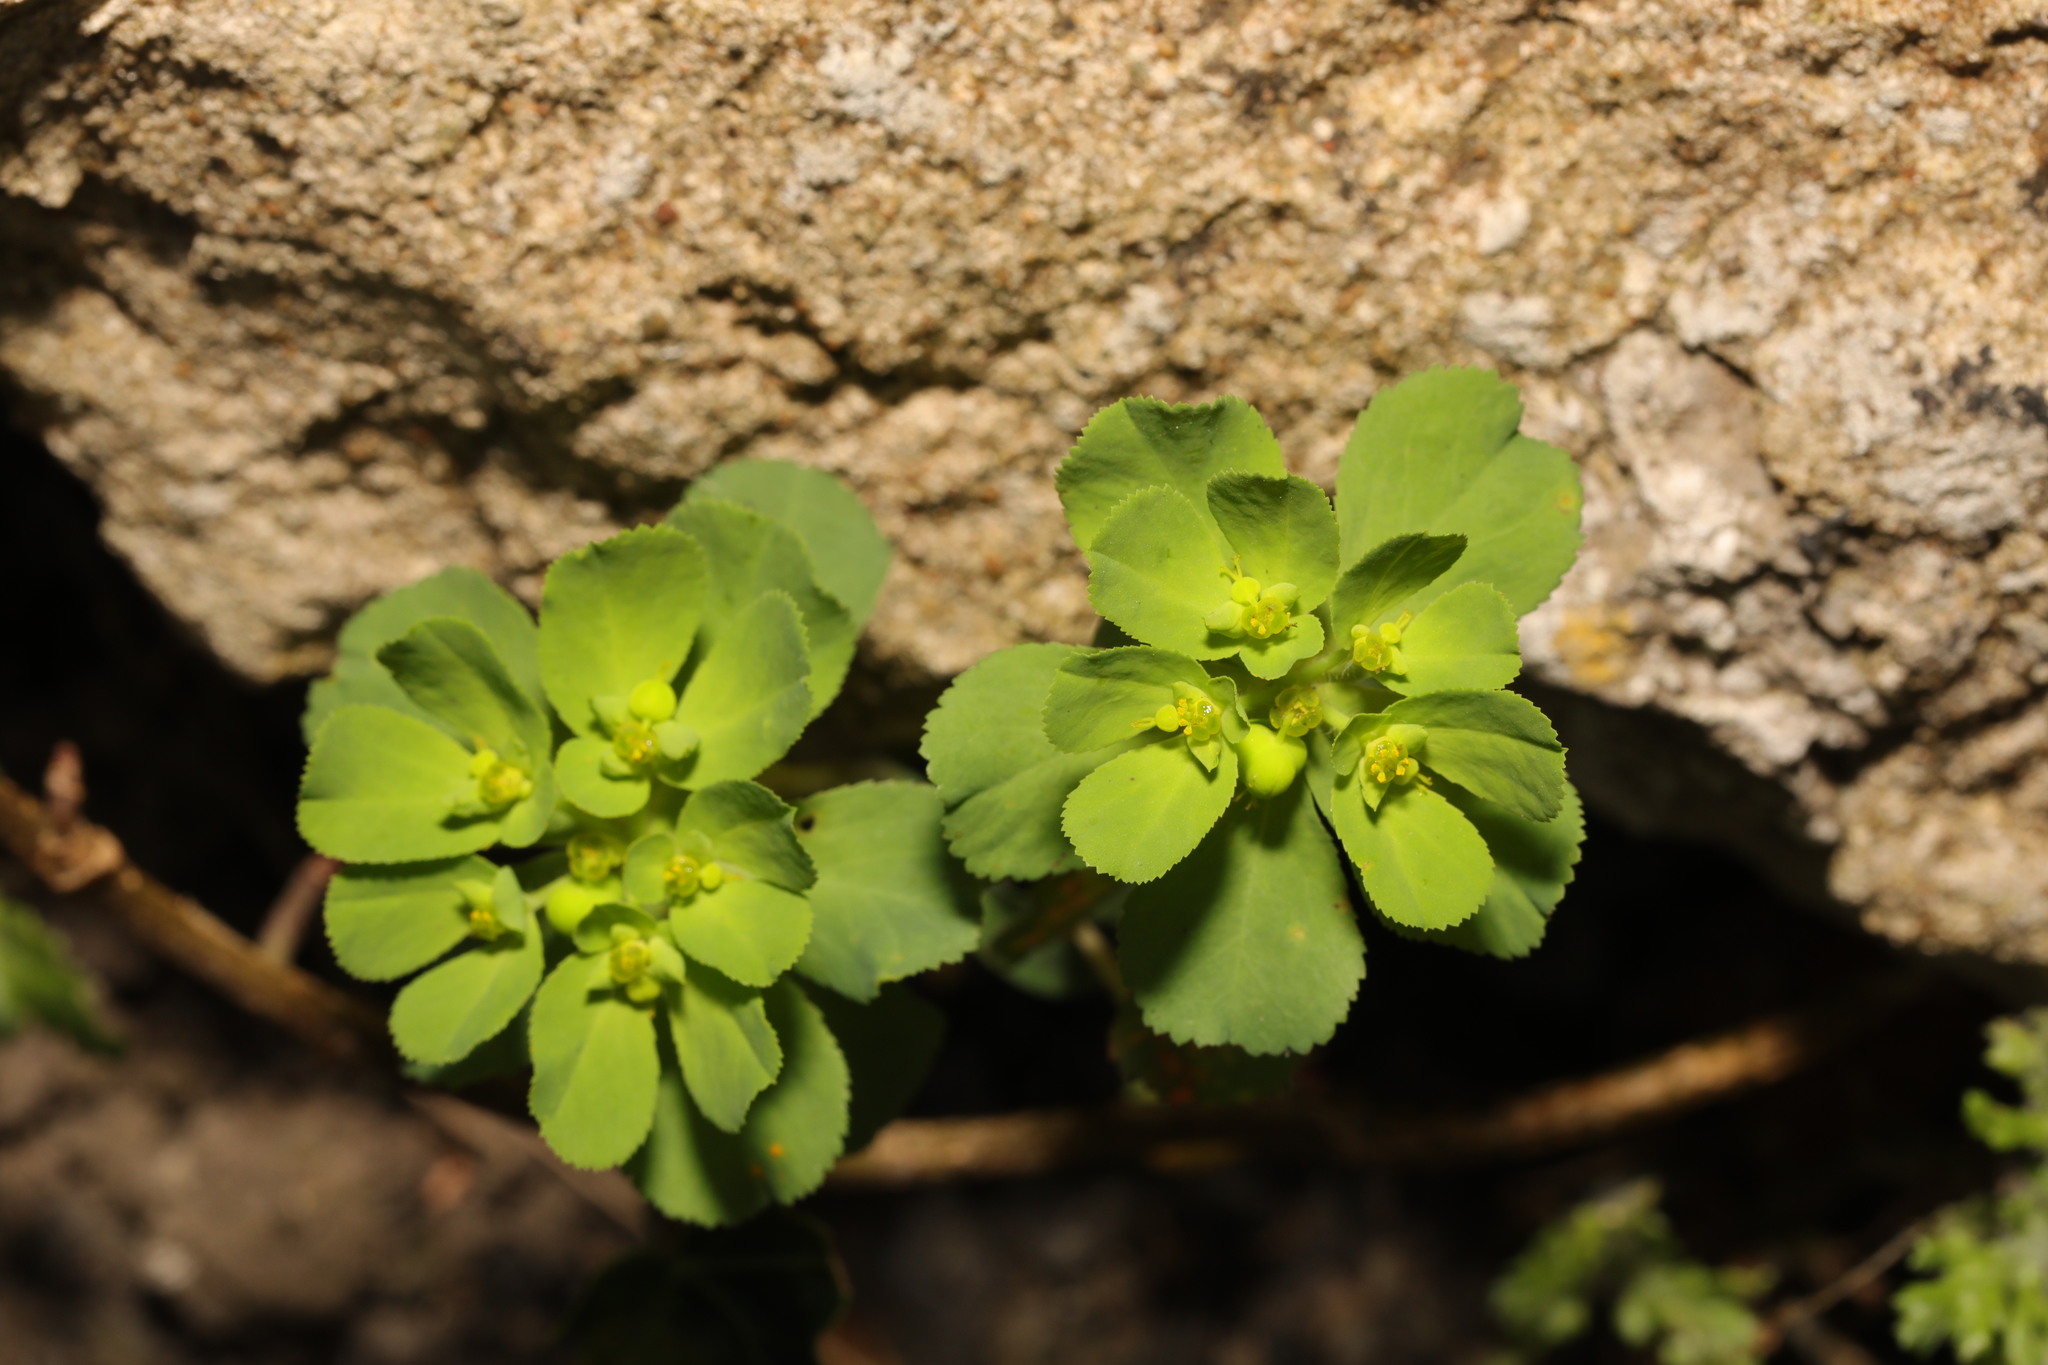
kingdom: Plantae
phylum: Tracheophyta
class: Magnoliopsida
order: Malpighiales
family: Euphorbiaceae
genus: Euphorbia
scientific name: Euphorbia helioscopia
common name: Sun spurge
